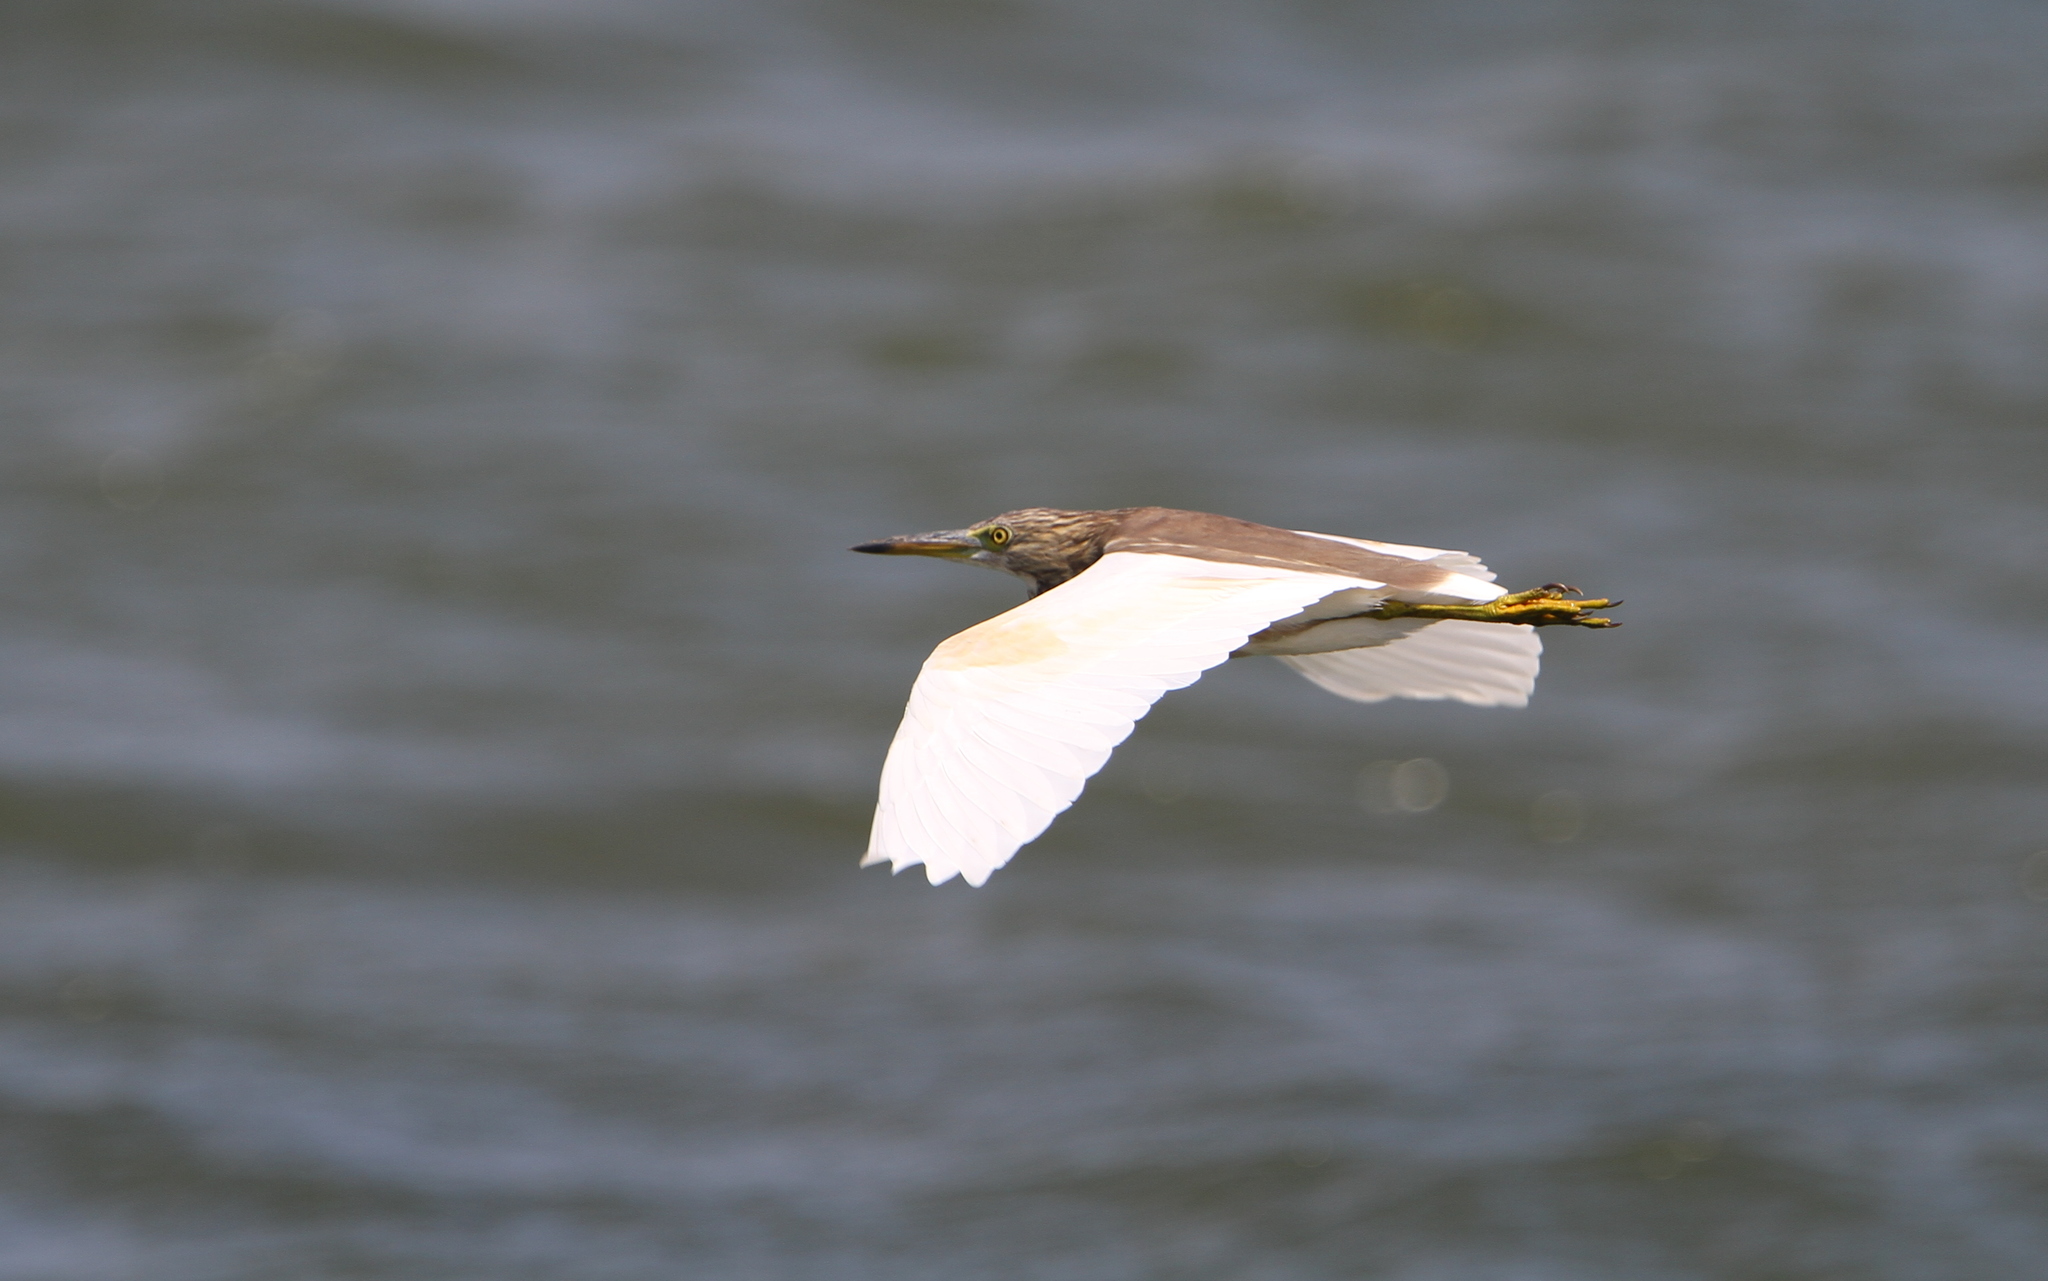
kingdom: Animalia
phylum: Chordata
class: Aves
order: Pelecaniformes
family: Ardeidae
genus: Ardeola
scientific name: Ardeola grayii
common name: Indian pond heron
